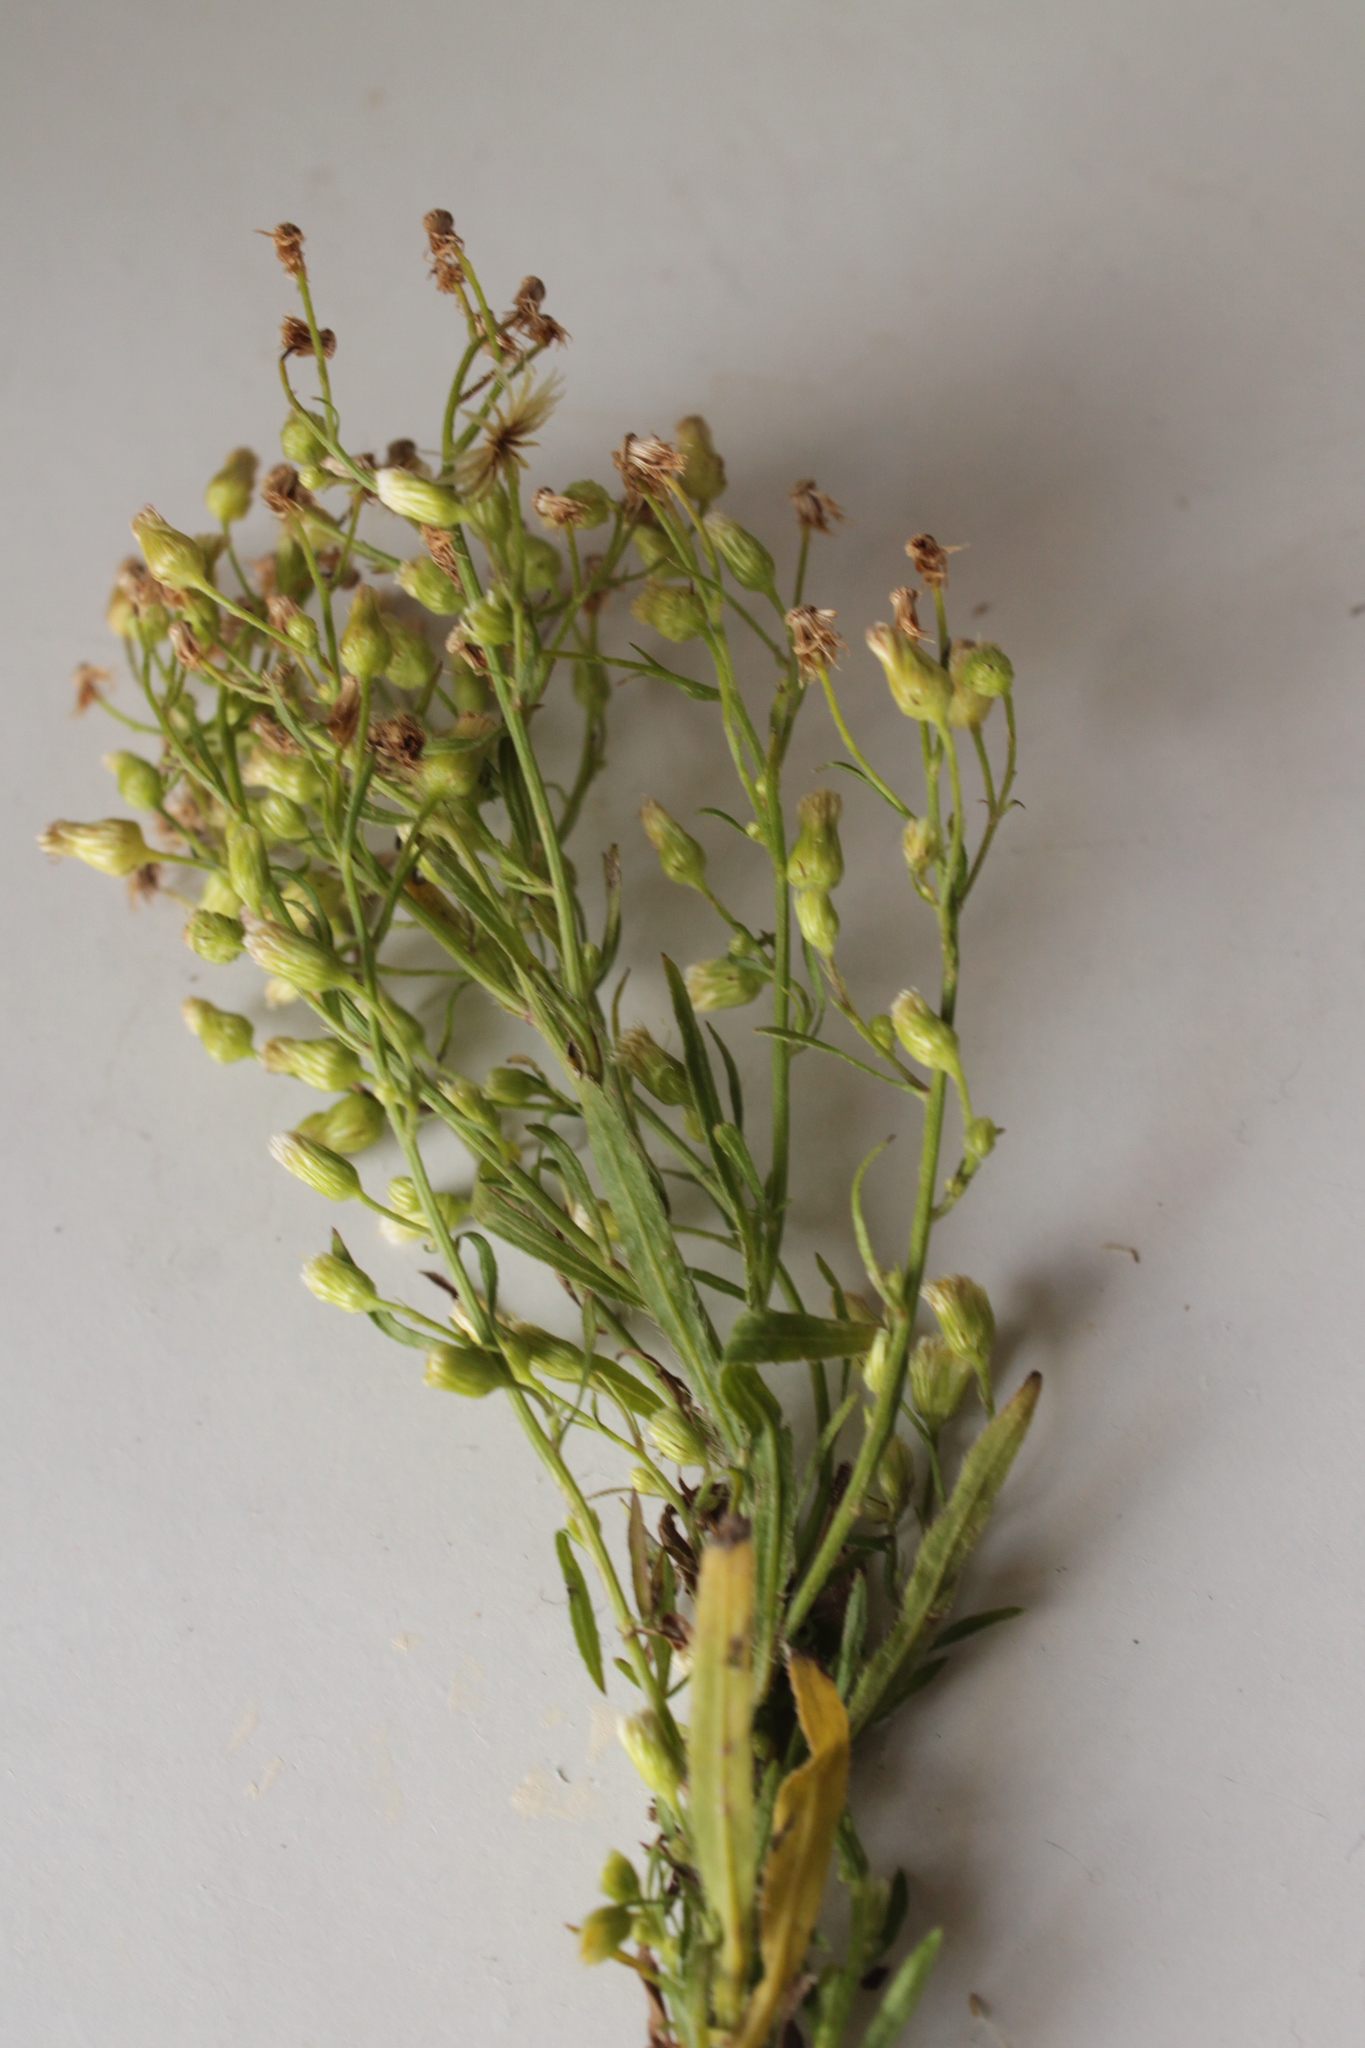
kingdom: Plantae
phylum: Tracheophyta
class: Magnoliopsida
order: Asterales
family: Asteraceae
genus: Erigeron
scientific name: Erigeron canadensis
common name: Canadian fleabane
